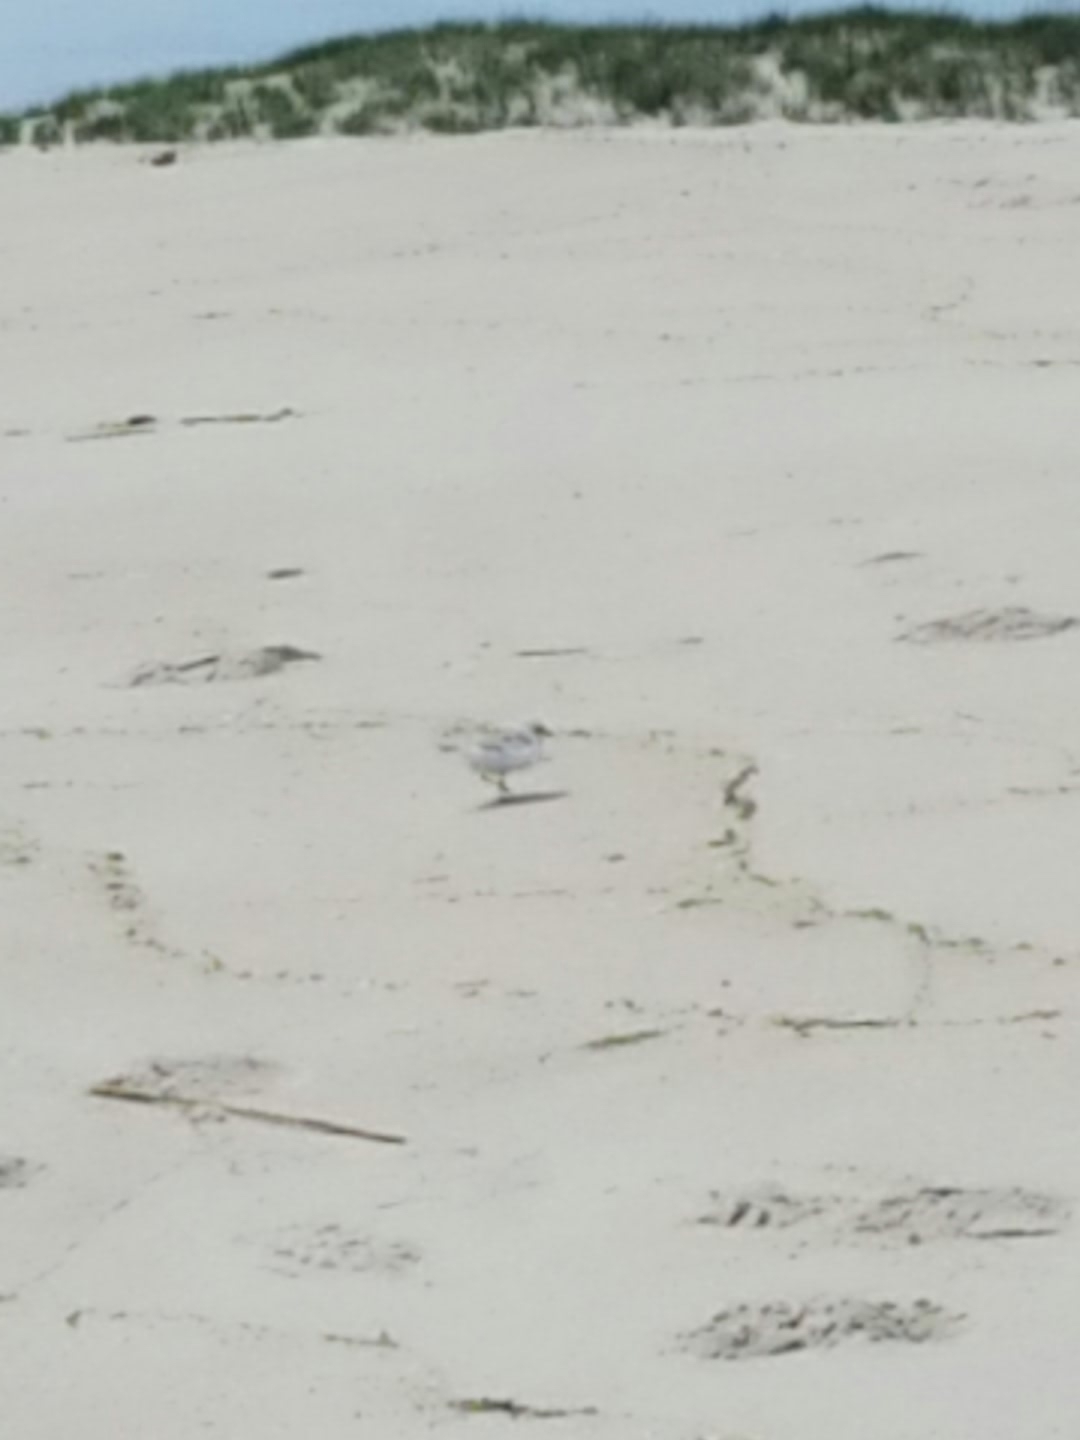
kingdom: Animalia
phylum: Chordata
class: Aves
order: Charadriiformes
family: Charadriidae
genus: Charadrius
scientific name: Charadrius melodus
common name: Piping plover
